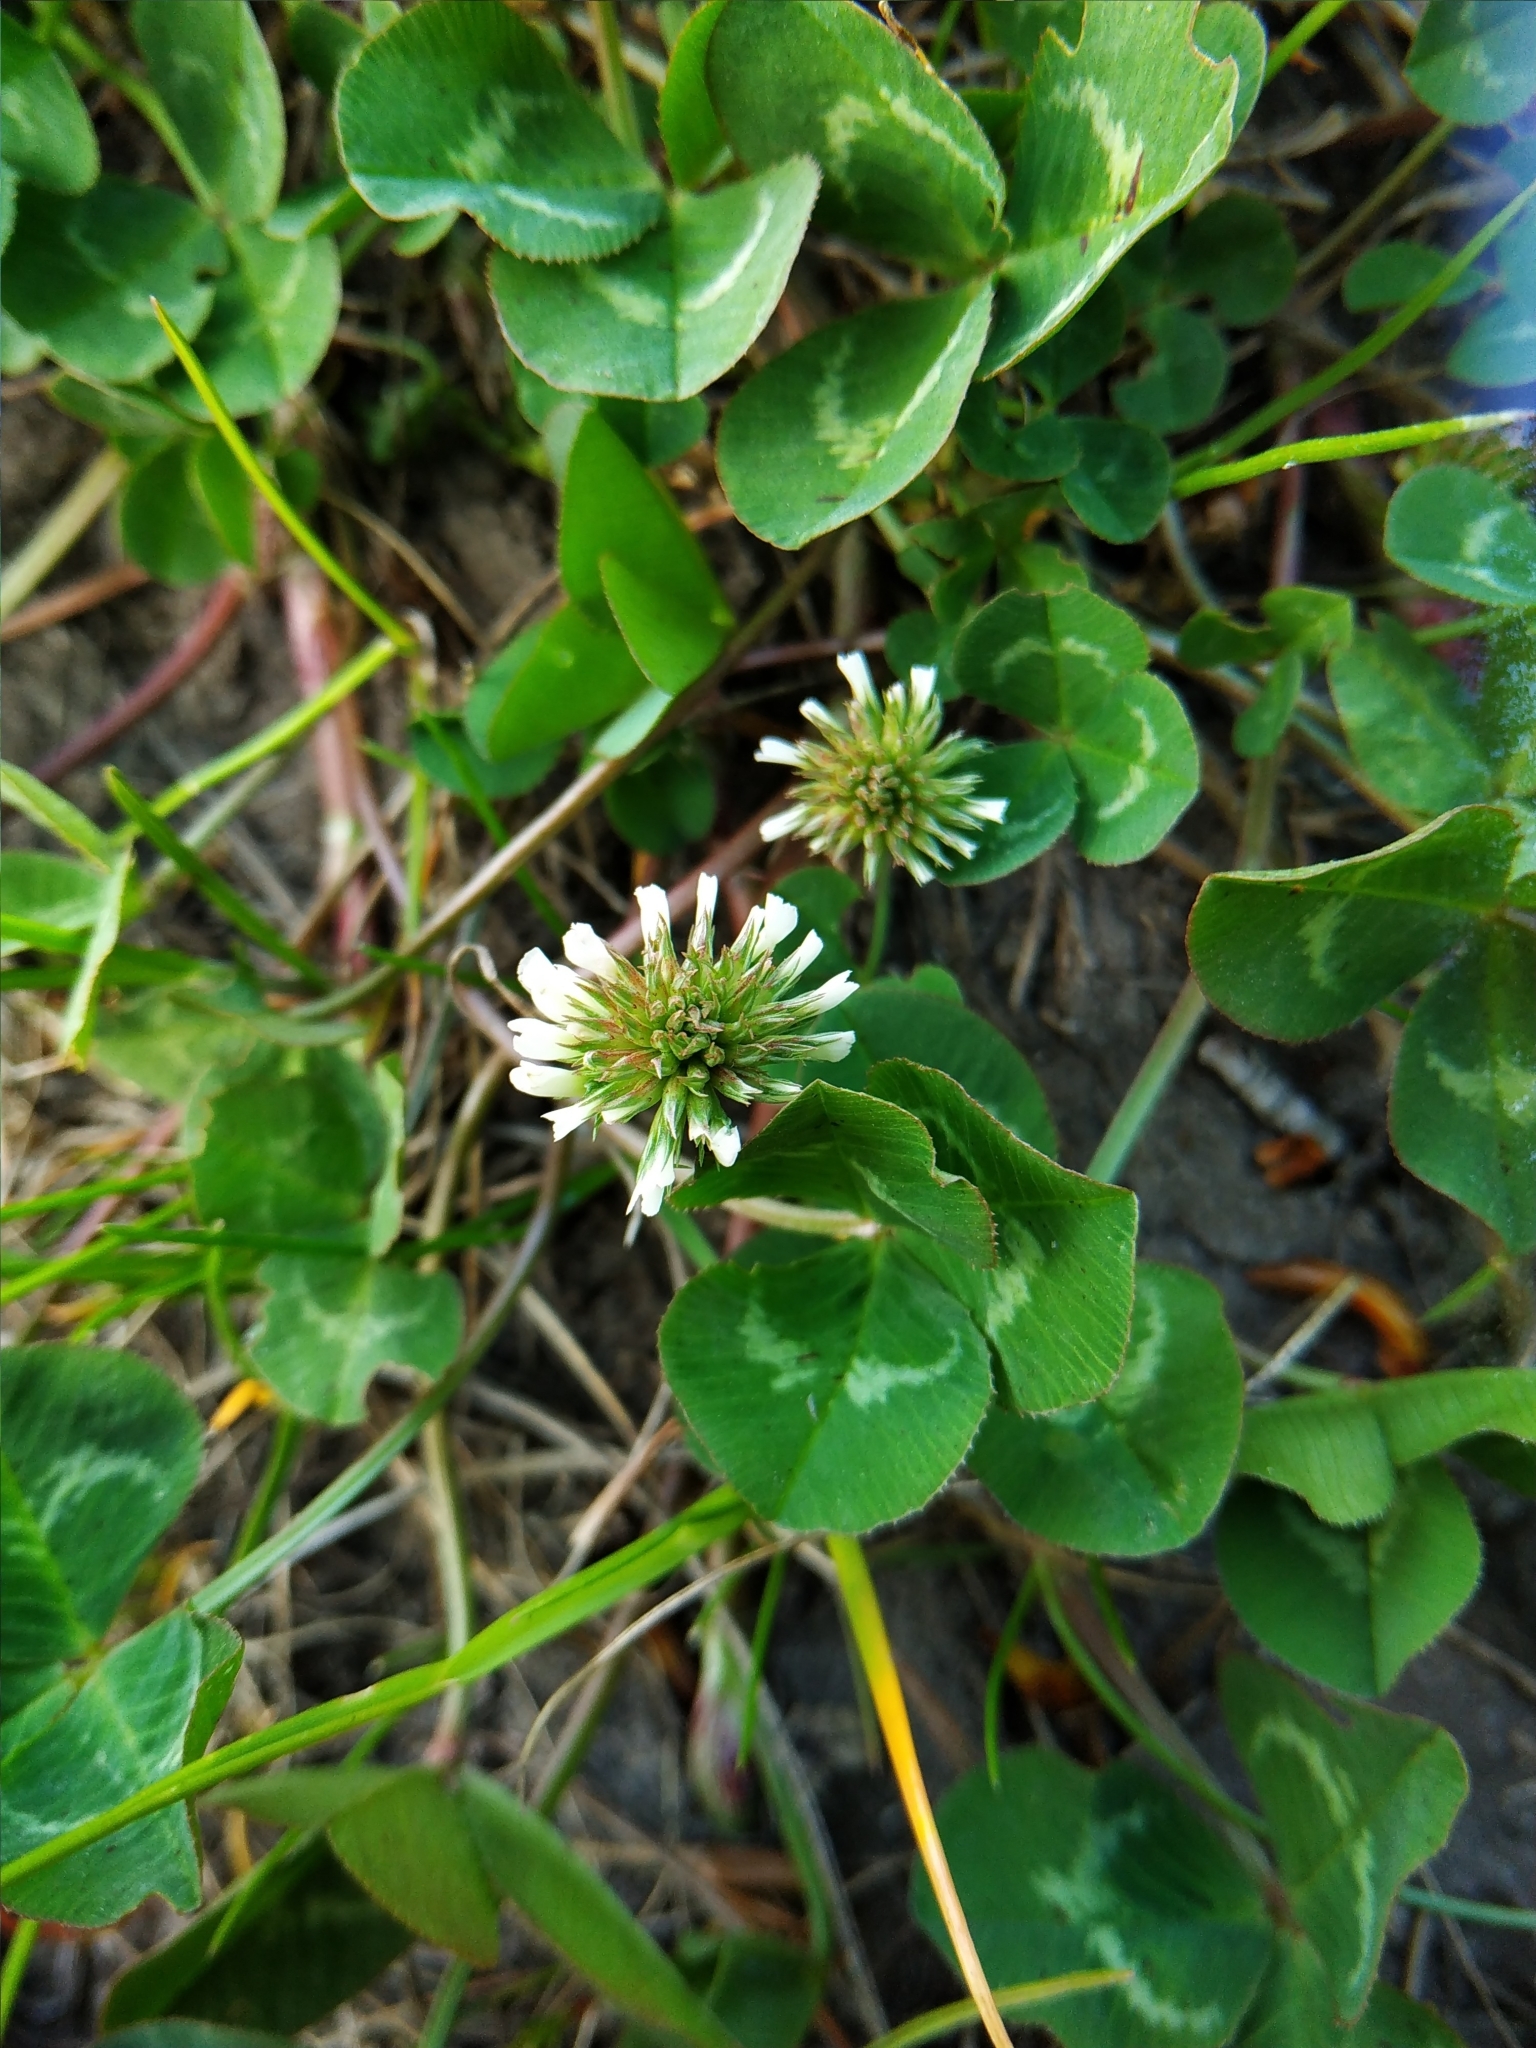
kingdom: Plantae
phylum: Tracheophyta
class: Magnoliopsida
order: Fabales
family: Fabaceae
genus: Trifolium
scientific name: Trifolium repens
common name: White clover
